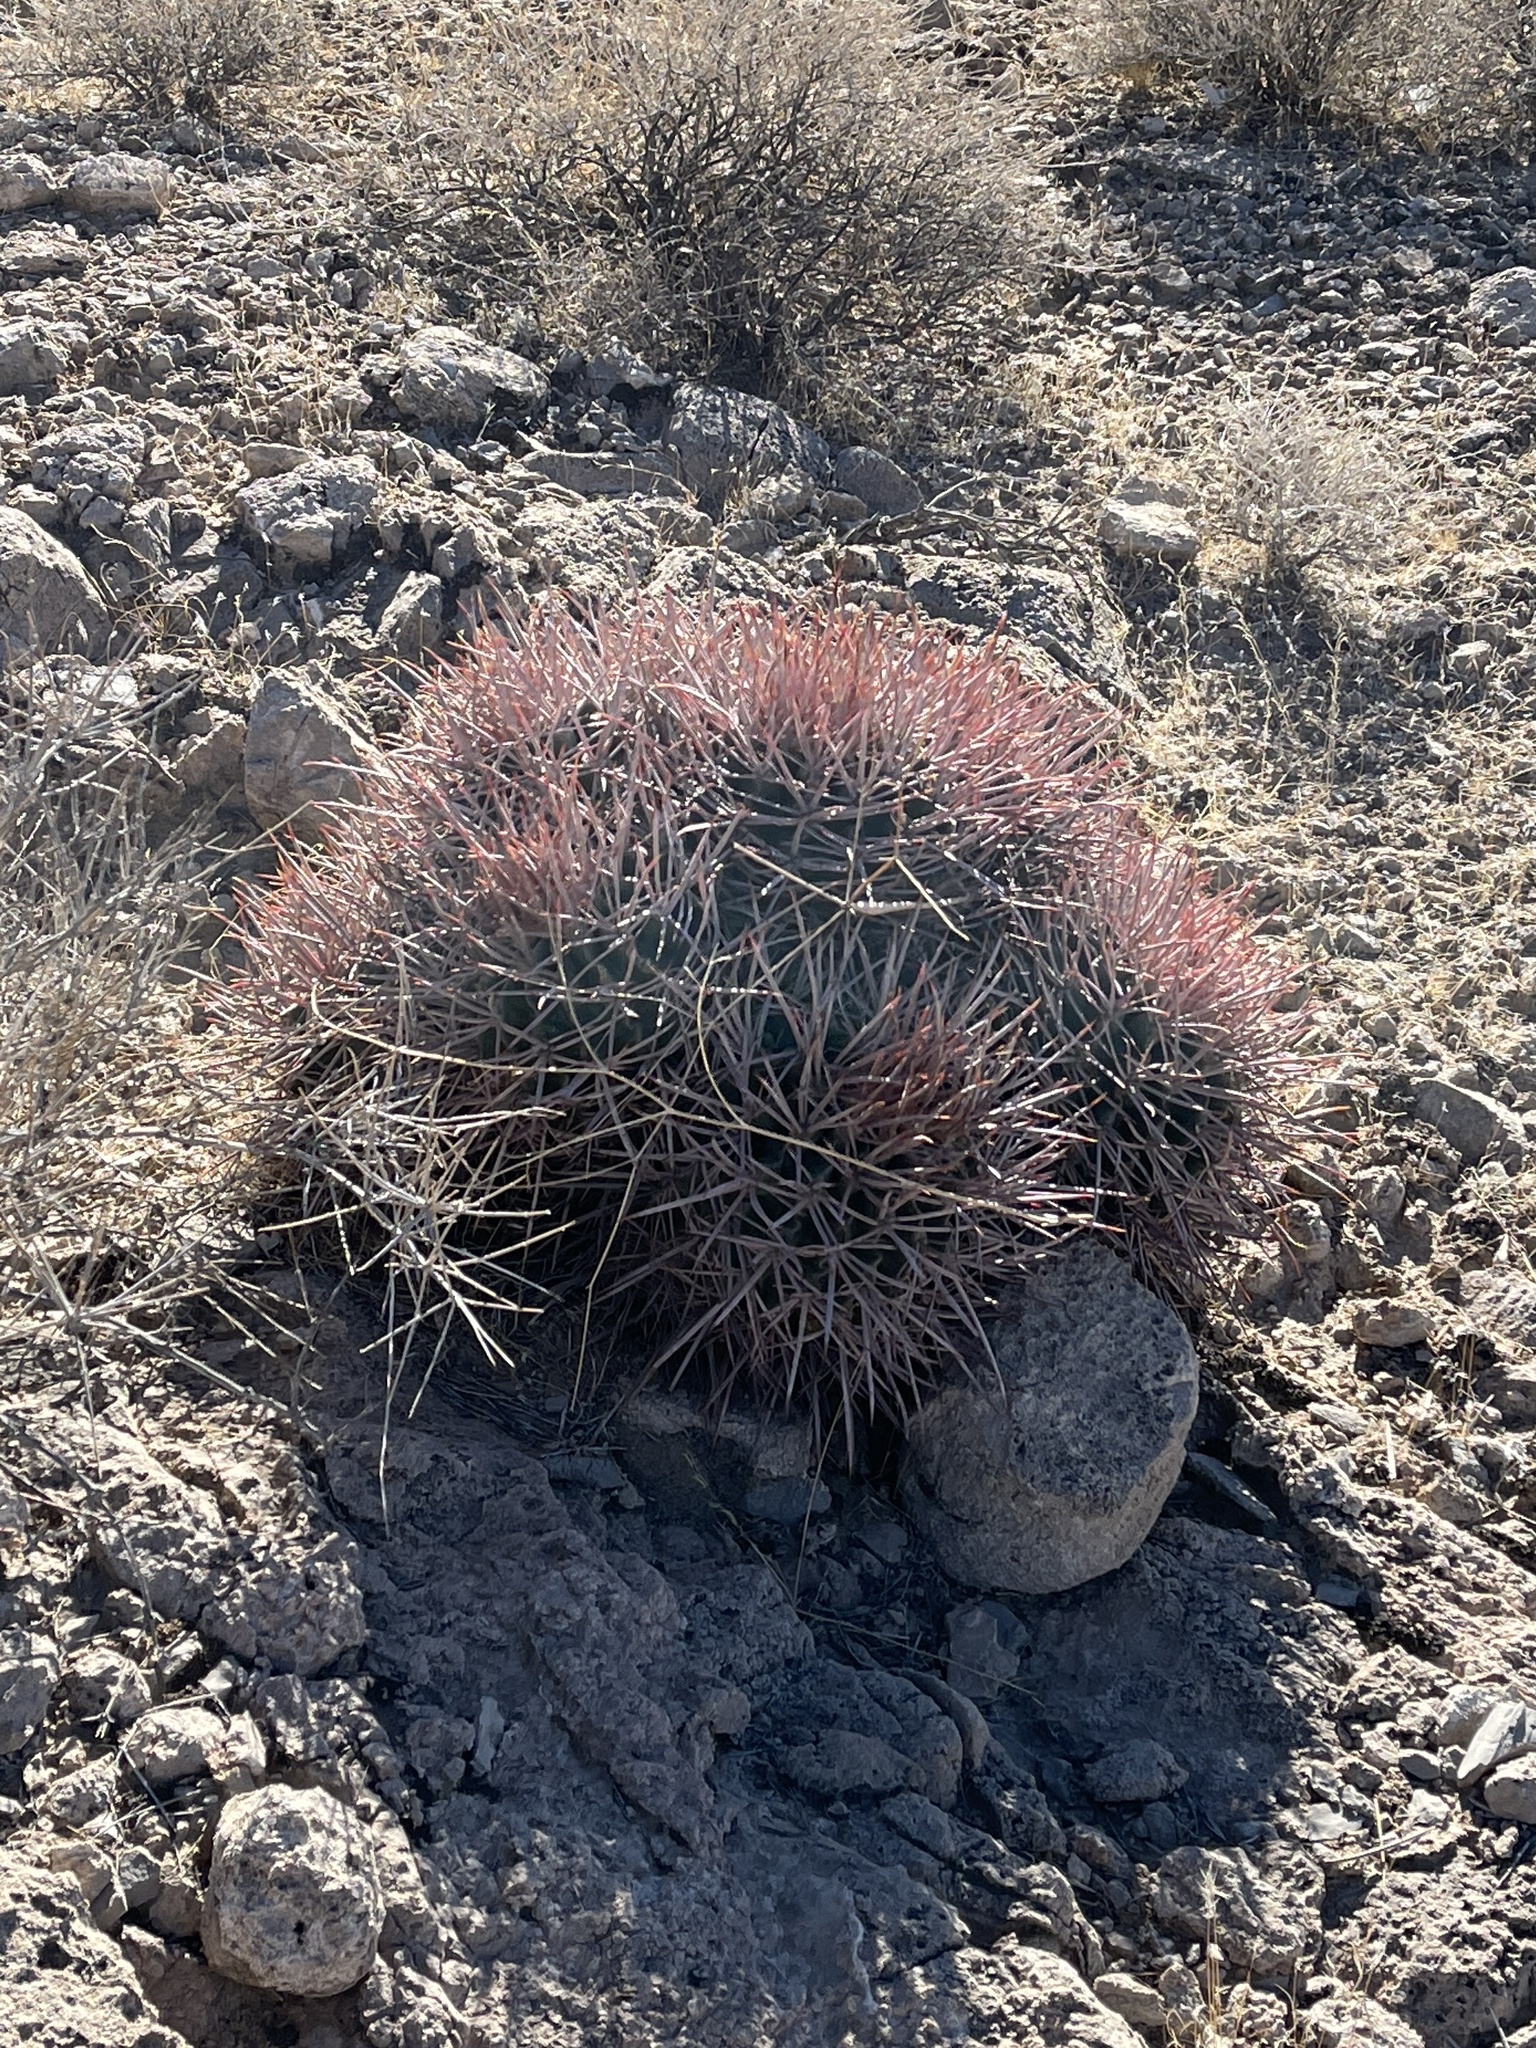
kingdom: Plantae
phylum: Tracheophyta
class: Magnoliopsida
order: Caryophyllales
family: Cactaceae
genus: Echinocactus
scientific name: Echinocactus polycephalus
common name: Cottontop cactus
